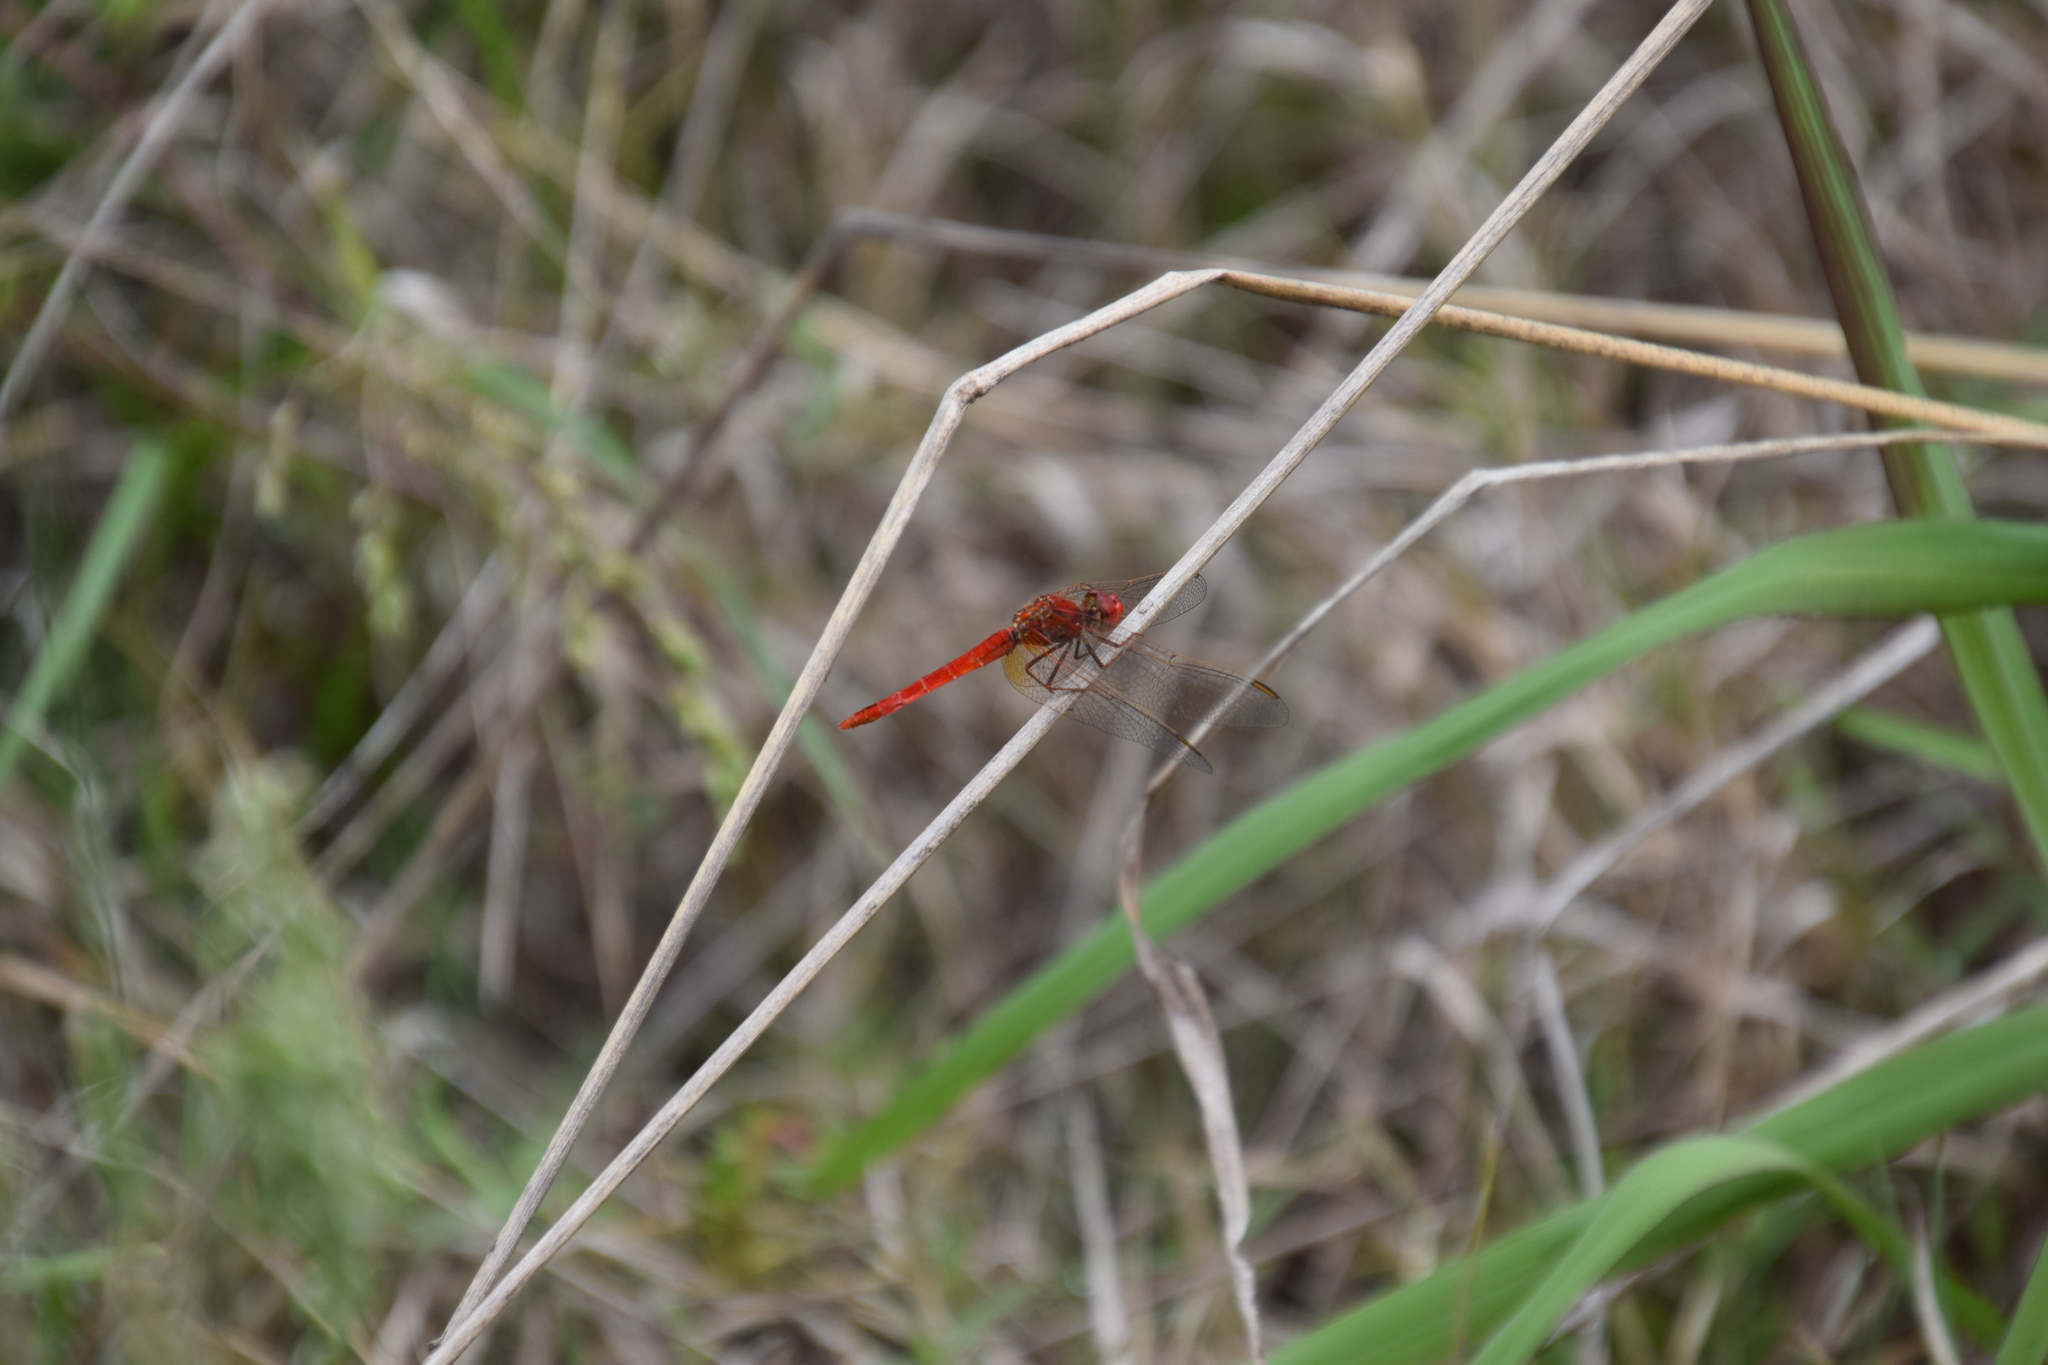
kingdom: Animalia
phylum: Arthropoda
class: Insecta
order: Odonata
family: Libellulidae
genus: Diplacodes
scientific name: Diplacodes haematodes
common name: Scarlet percher
